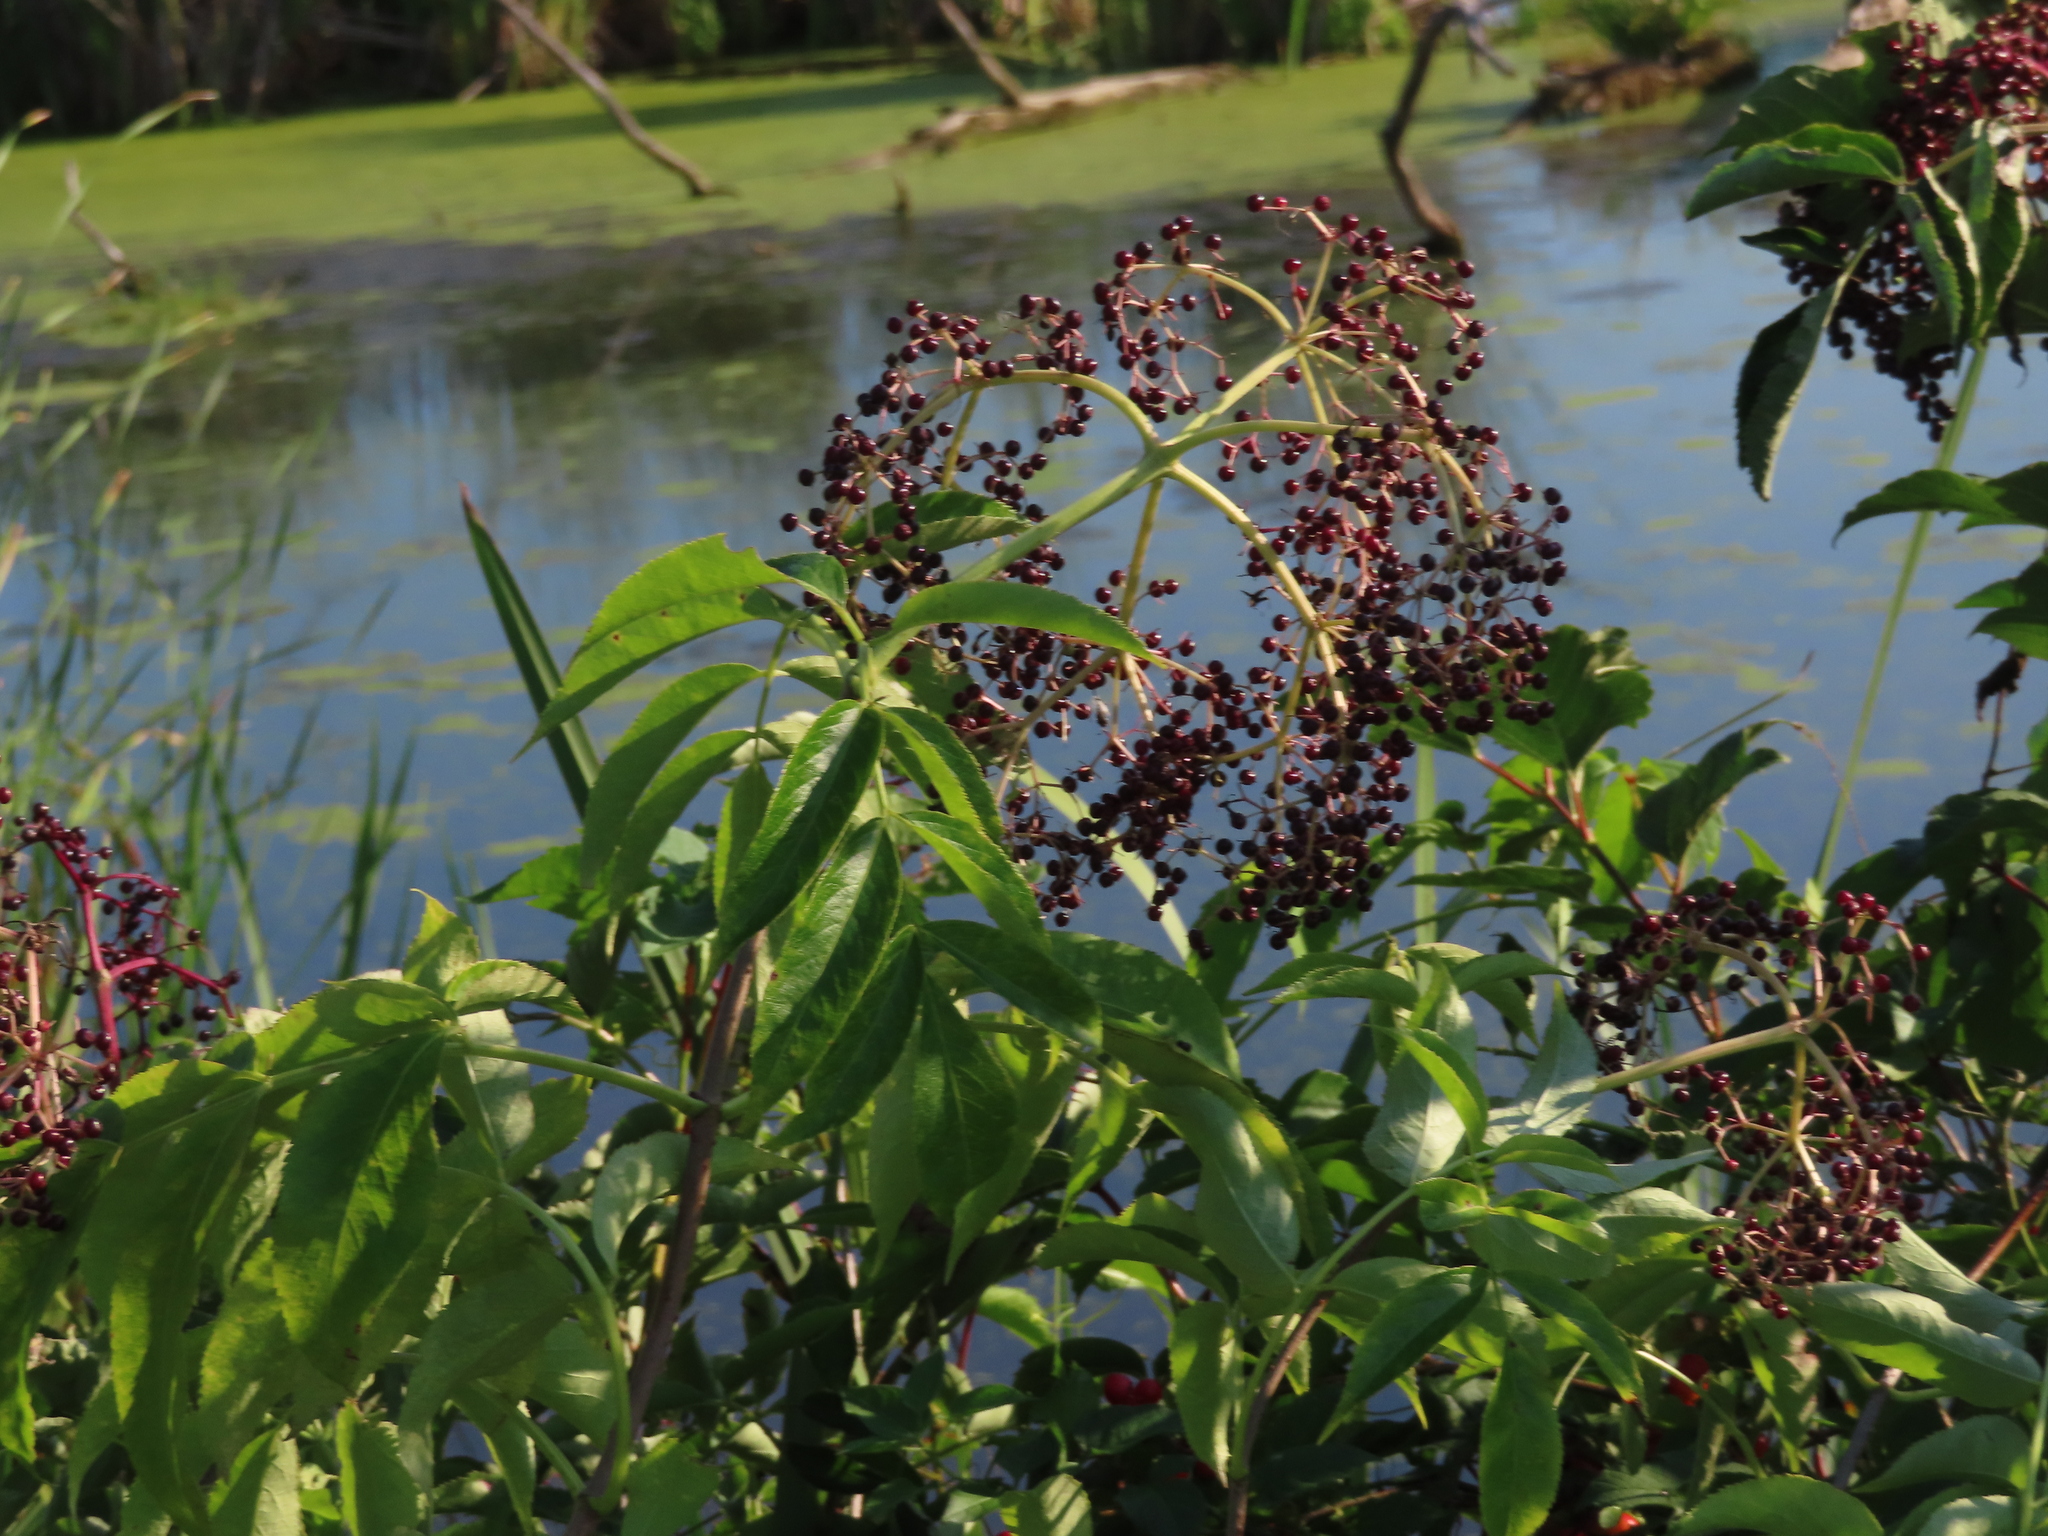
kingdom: Plantae
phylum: Tracheophyta
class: Magnoliopsida
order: Dipsacales
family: Viburnaceae
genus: Sambucus
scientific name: Sambucus canadensis
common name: American elder
